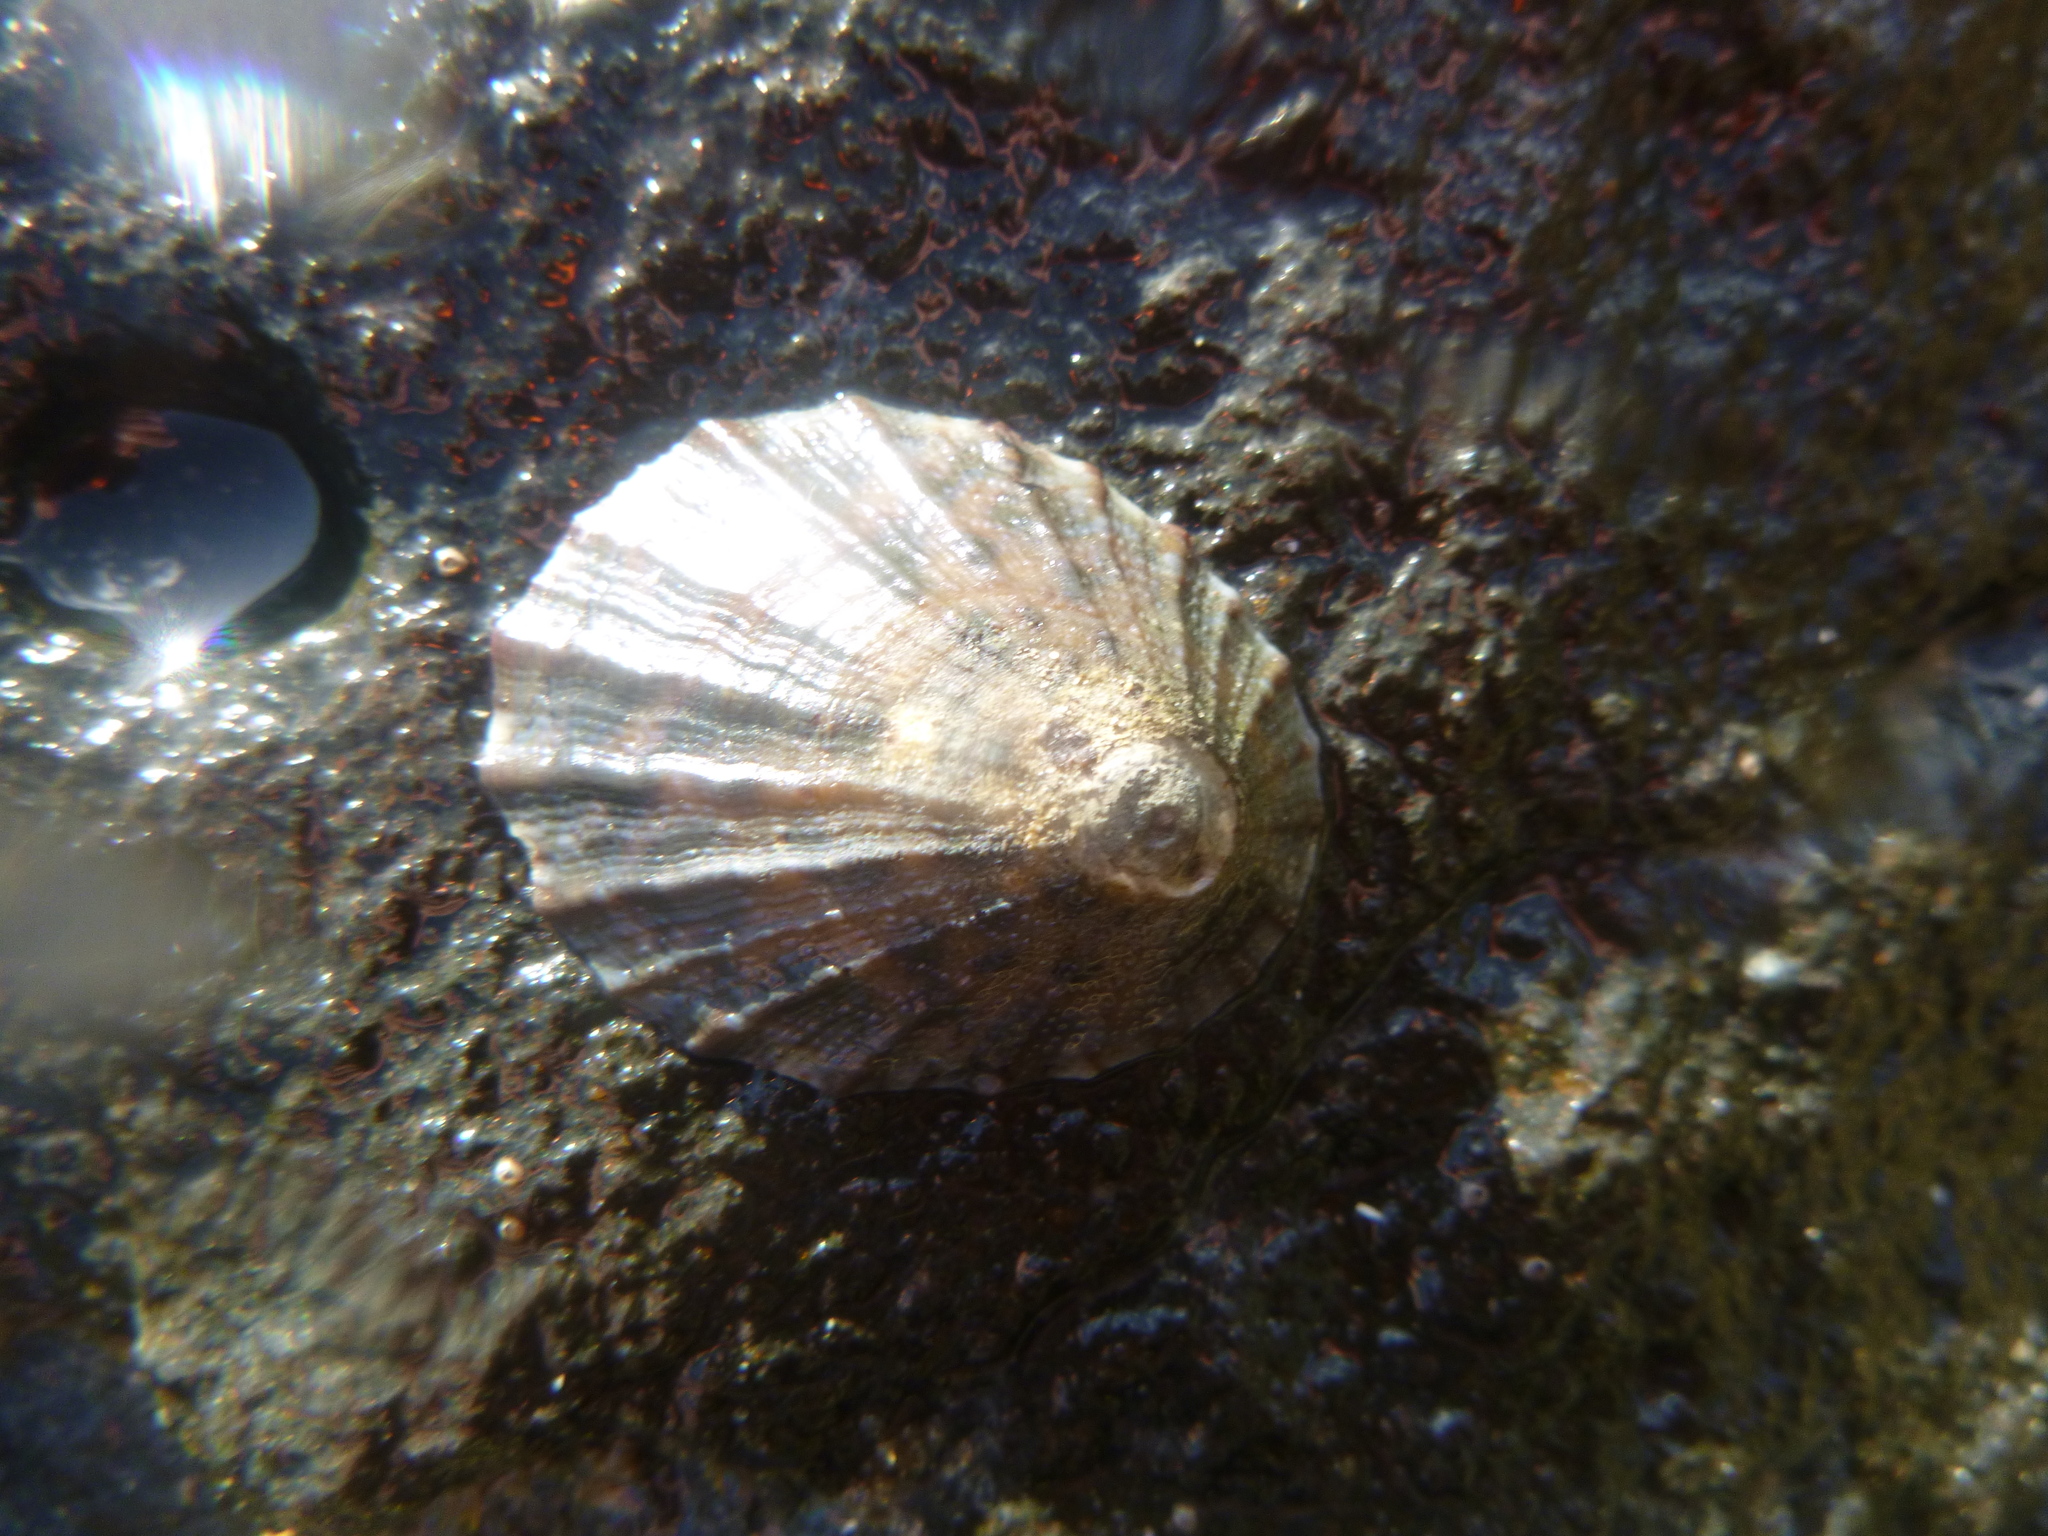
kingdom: Animalia
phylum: Mollusca
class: Gastropoda
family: Nacellidae
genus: Cellana
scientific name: Cellana radians
